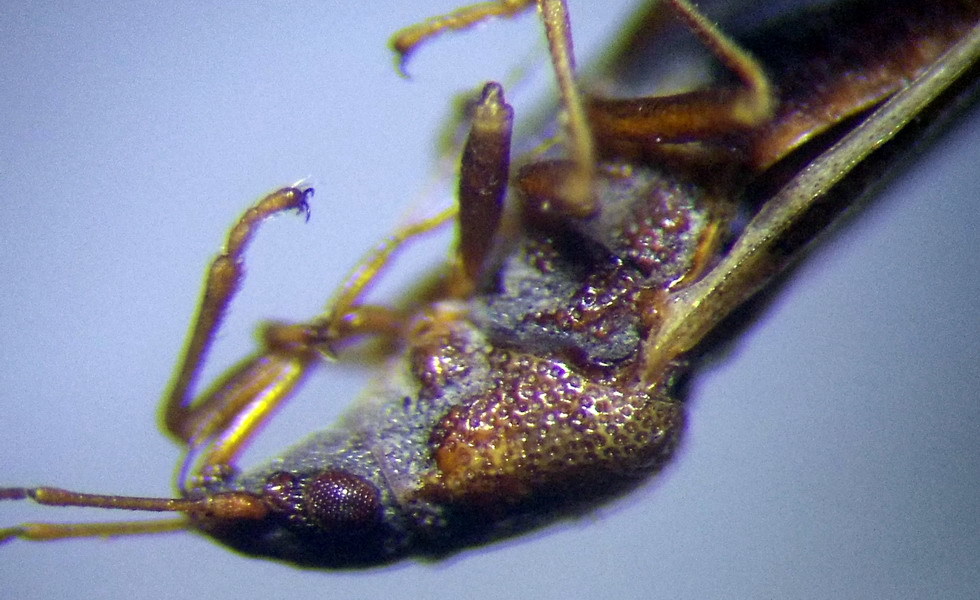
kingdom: Animalia
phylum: Arthropoda
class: Insecta
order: Hemiptera
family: Cymidae
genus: Cymus
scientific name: Cymus glandicolor
